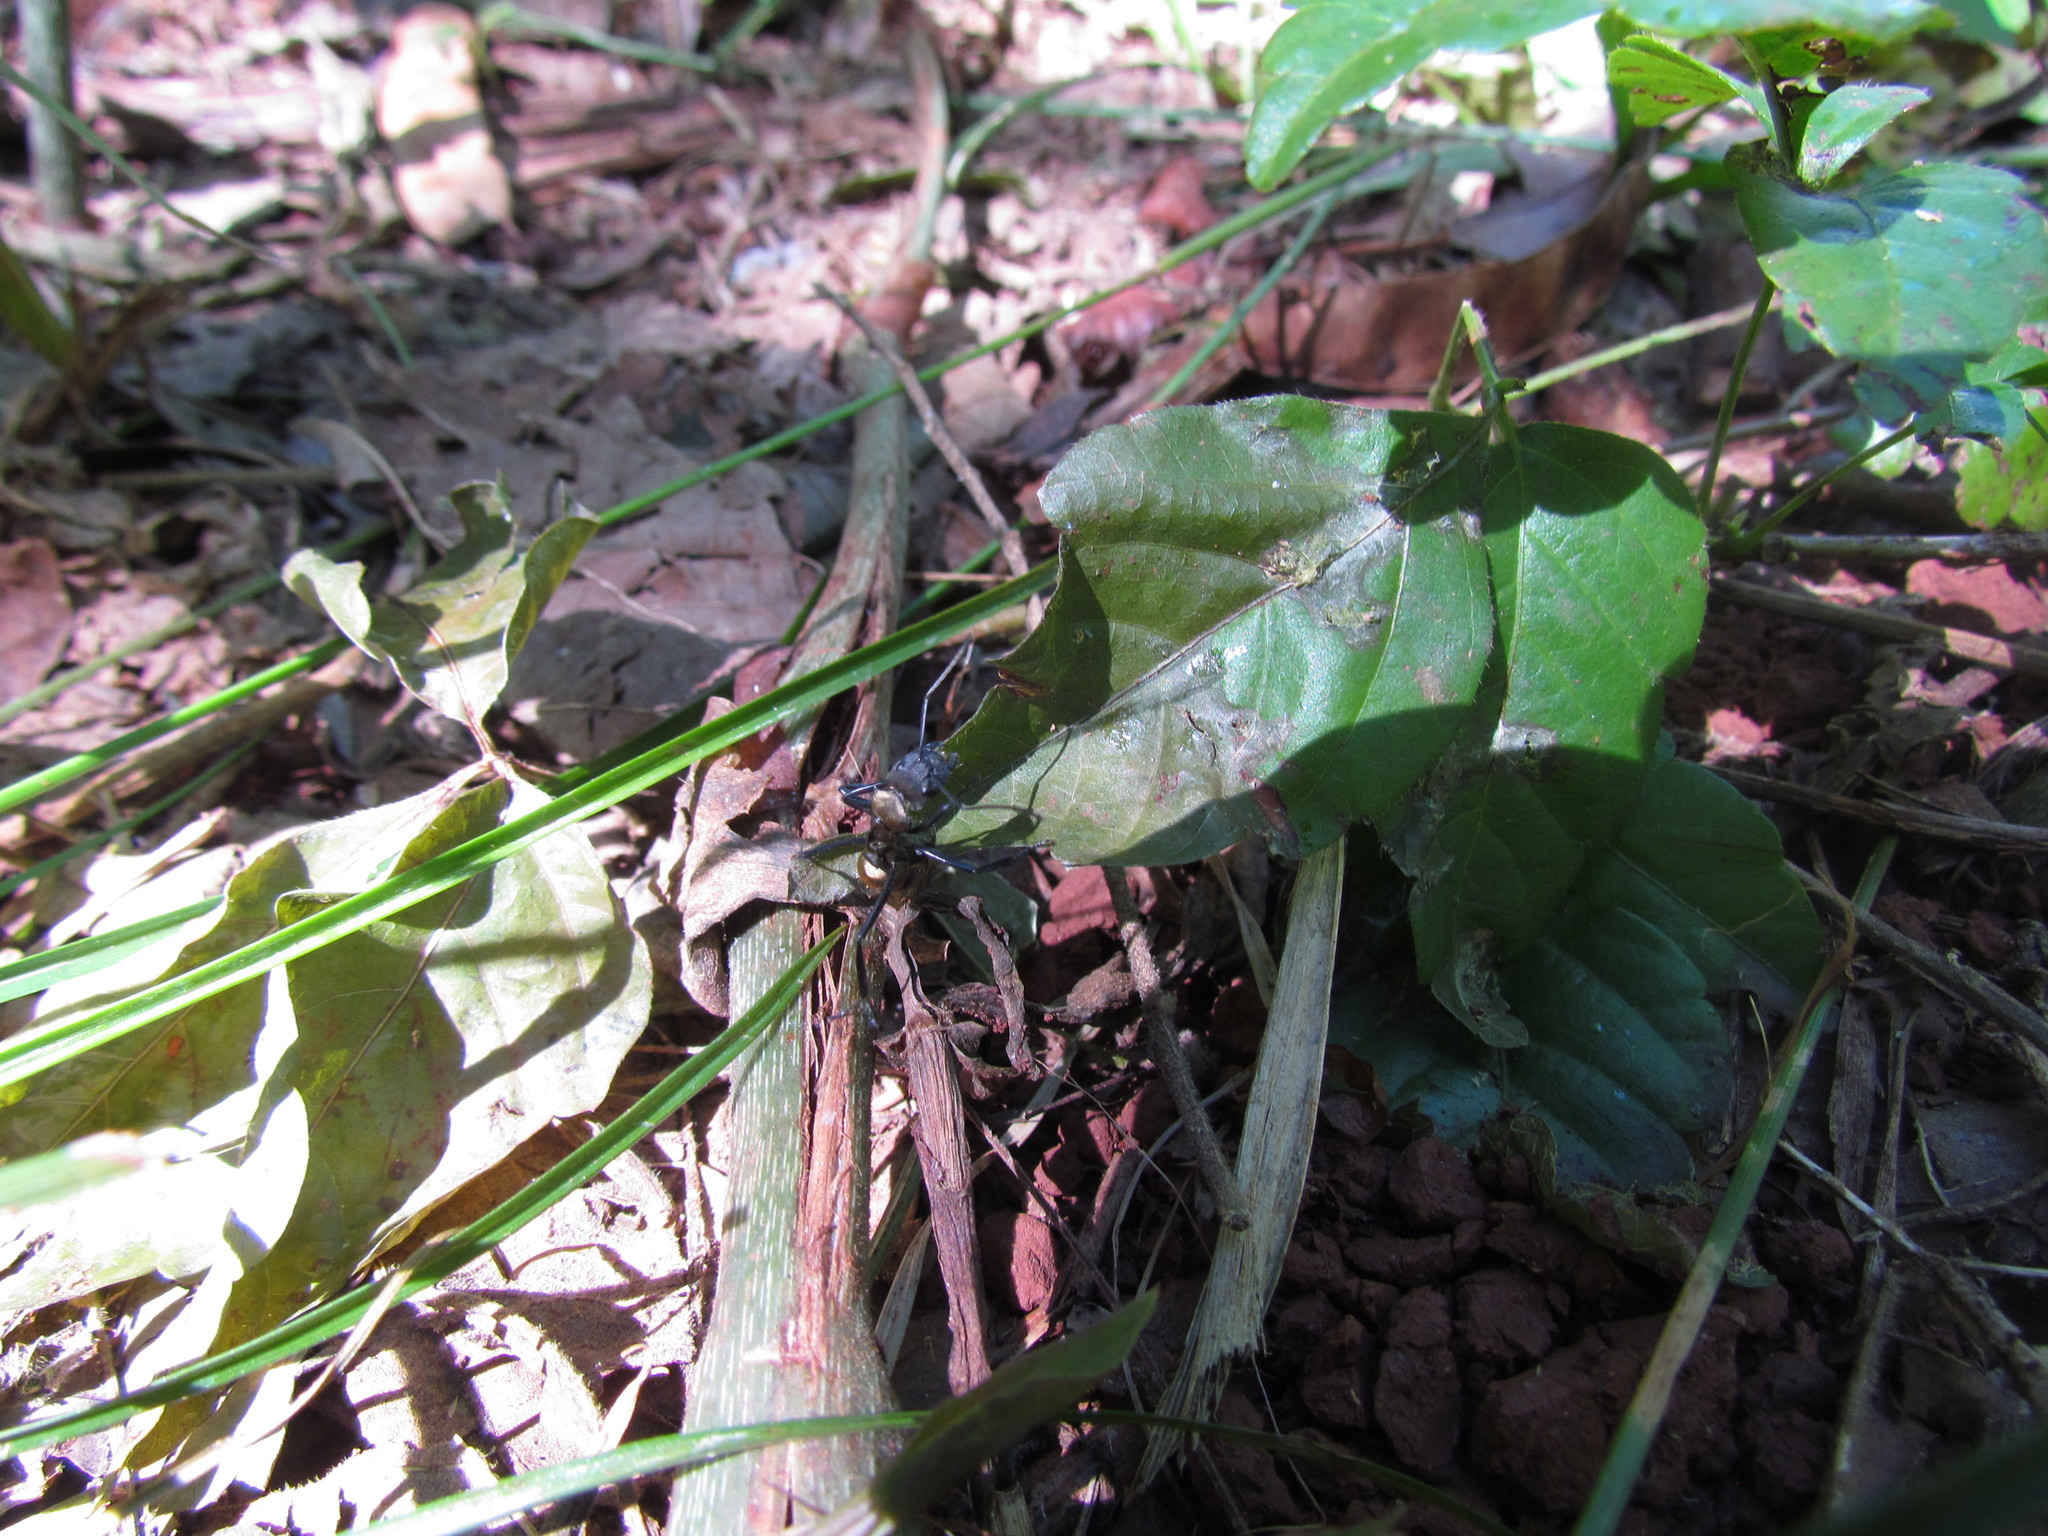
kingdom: Animalia
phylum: Arthropoda
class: Insecta
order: Hymenoptera
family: Formicidae
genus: Camponotus
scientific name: Camponotus sericeiventris
